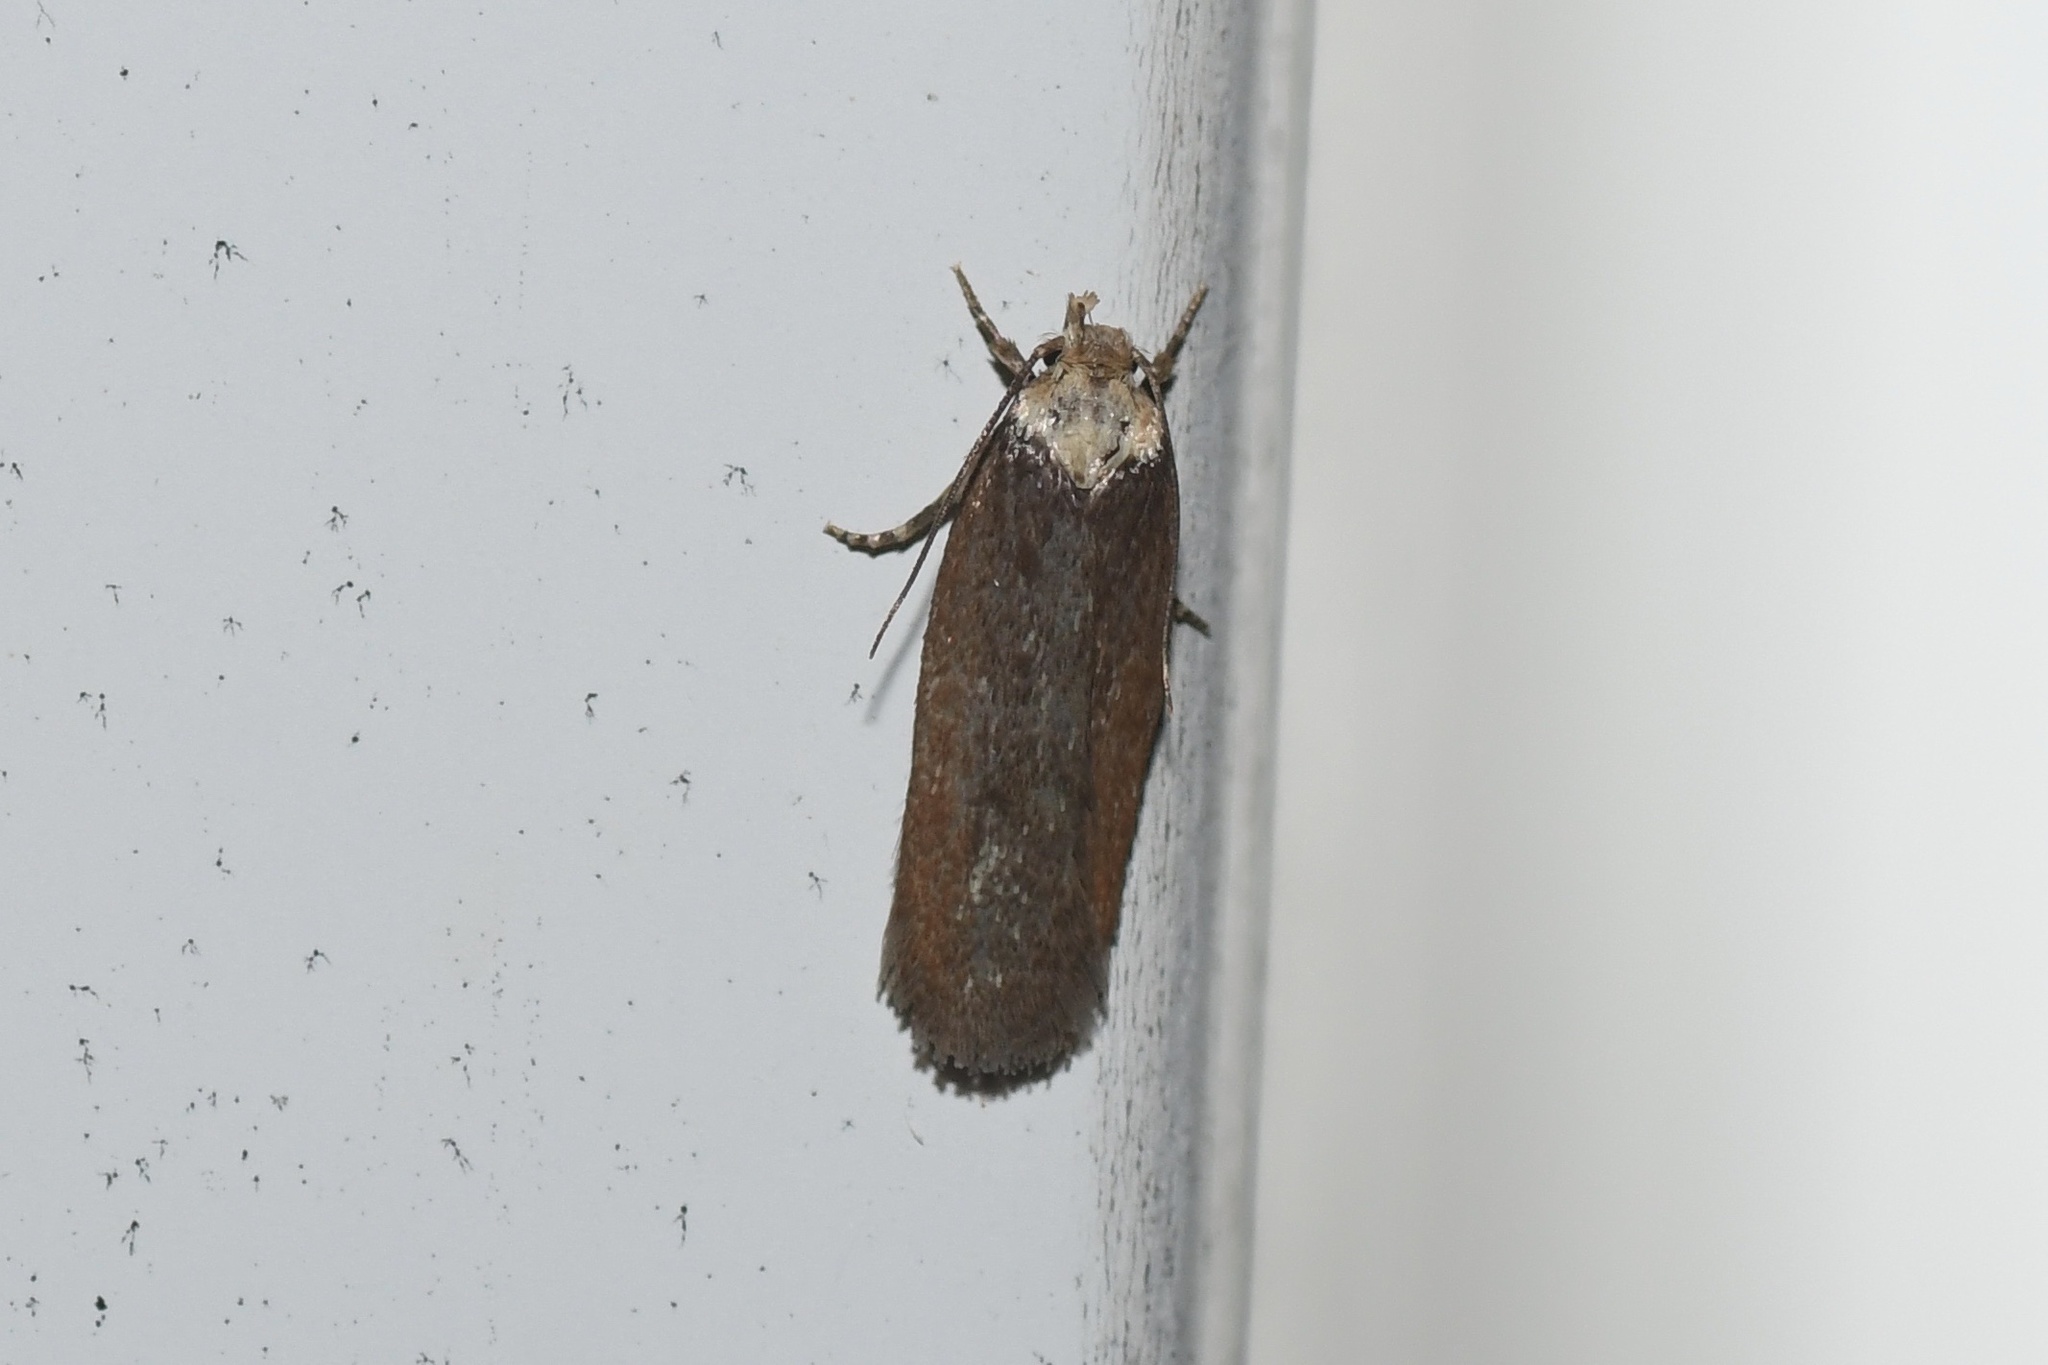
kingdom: Animalia
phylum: Arthropoda
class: Insecta
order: Lepidoptera
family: Depressariidae
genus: Depressaria
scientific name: Depressaria depressana
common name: Lost flat-body
